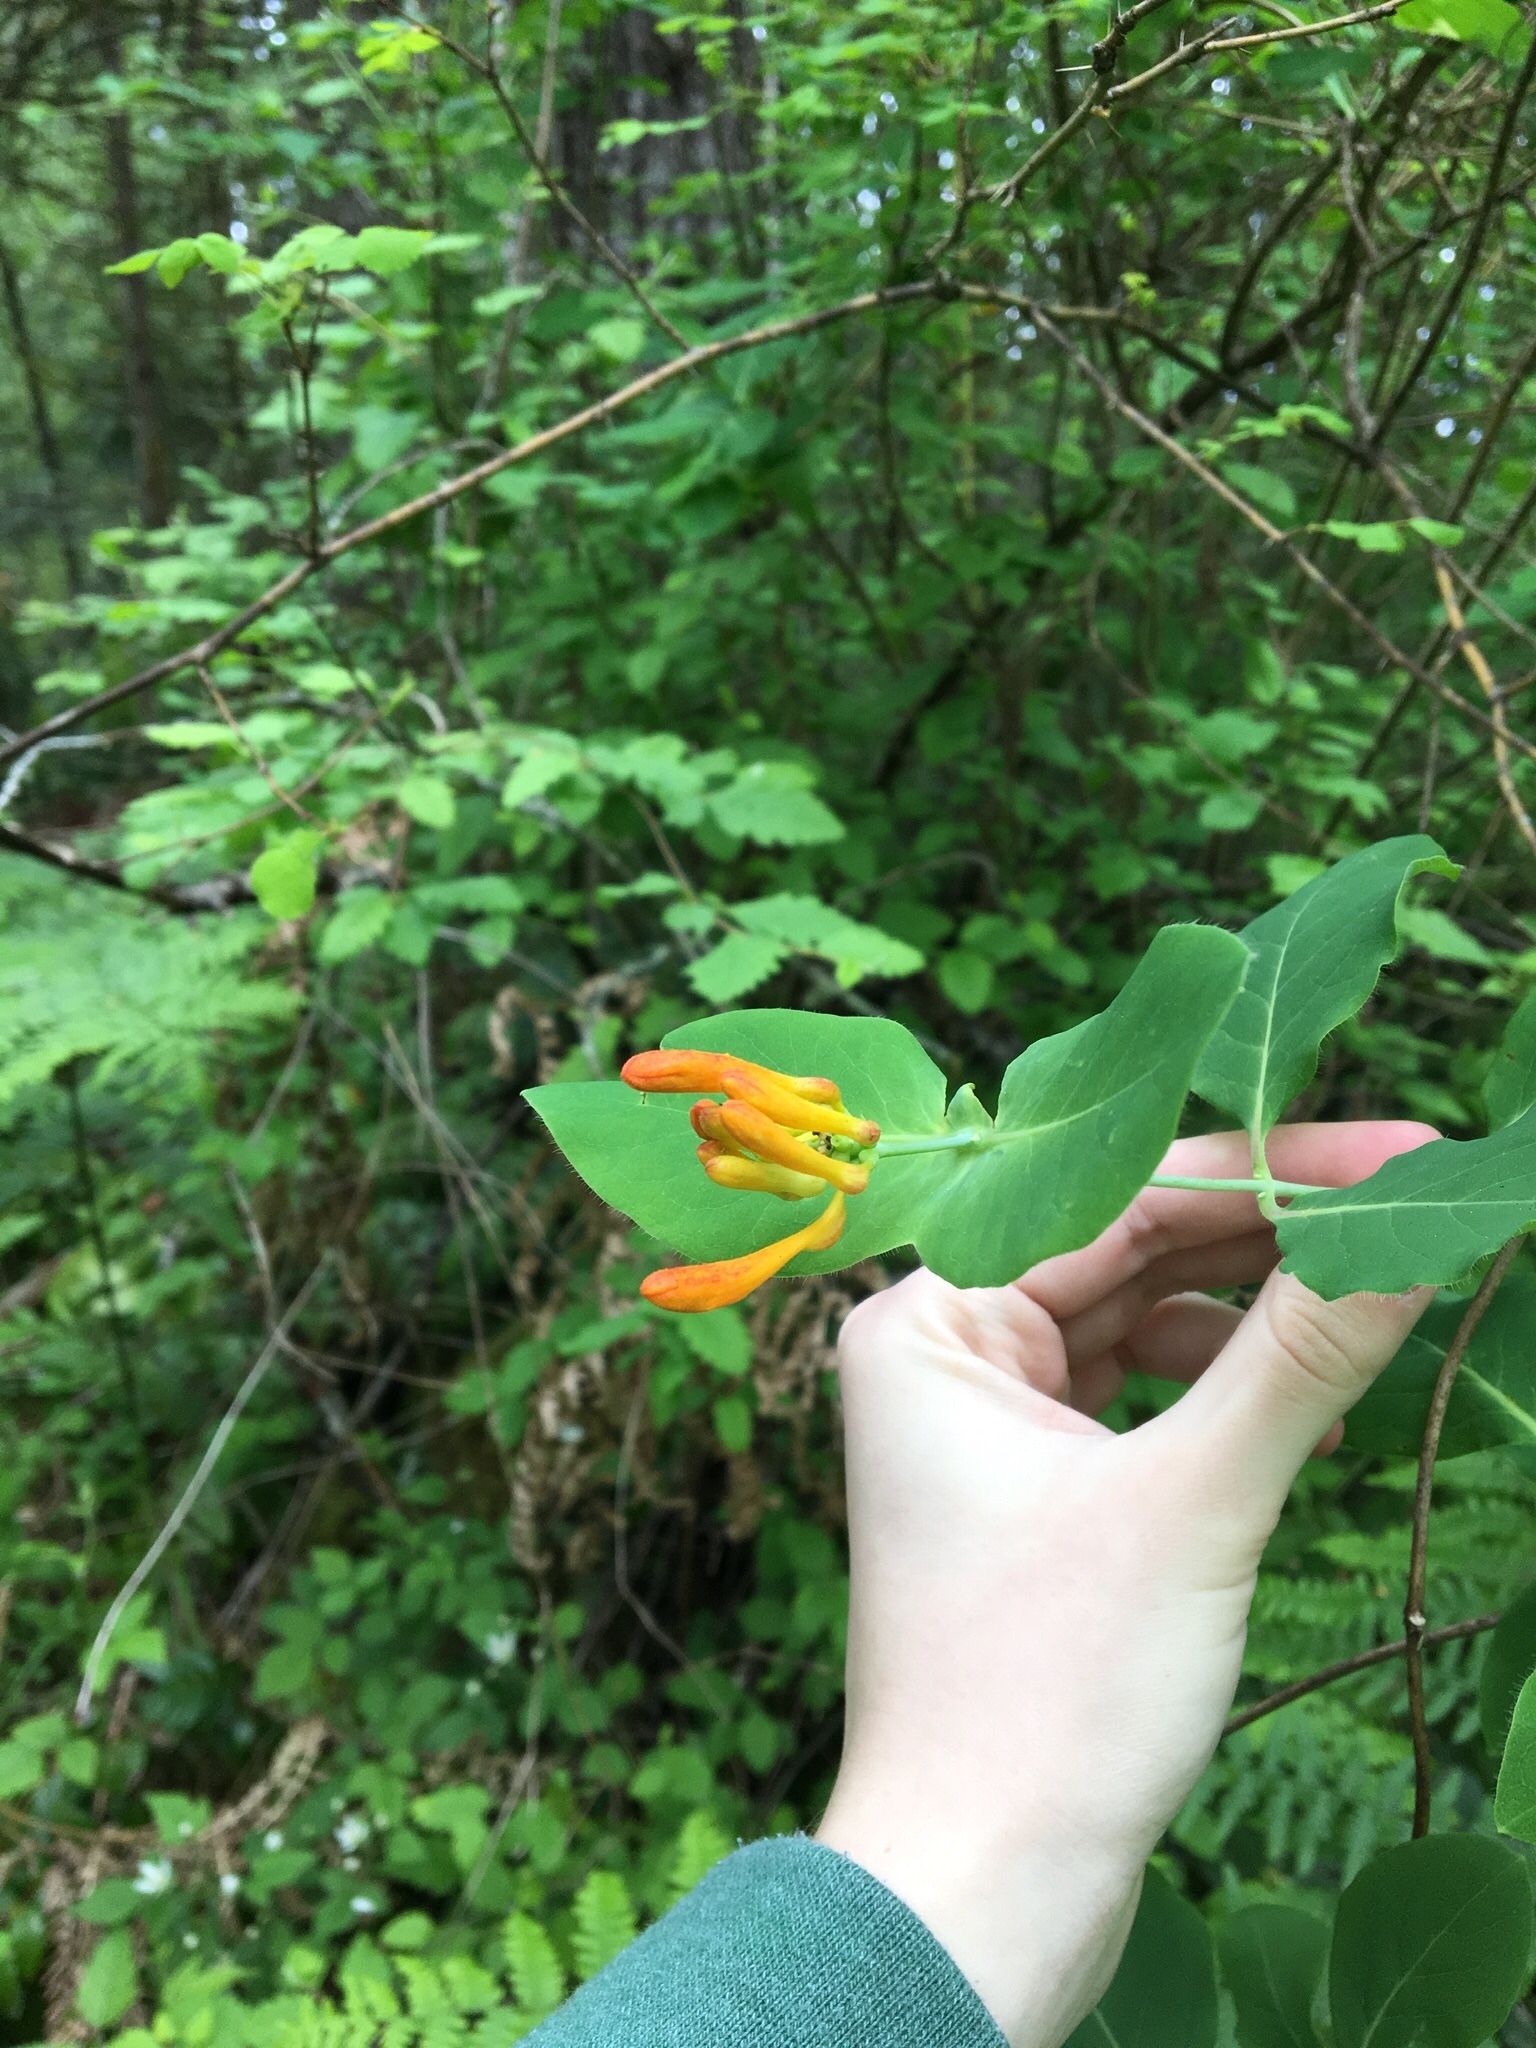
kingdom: Plantae
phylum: Tracheophyta
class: Magnoliopsida
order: Dipsacales
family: Caprifoliaceae
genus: Lonicera
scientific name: Lonicera ciliosa
